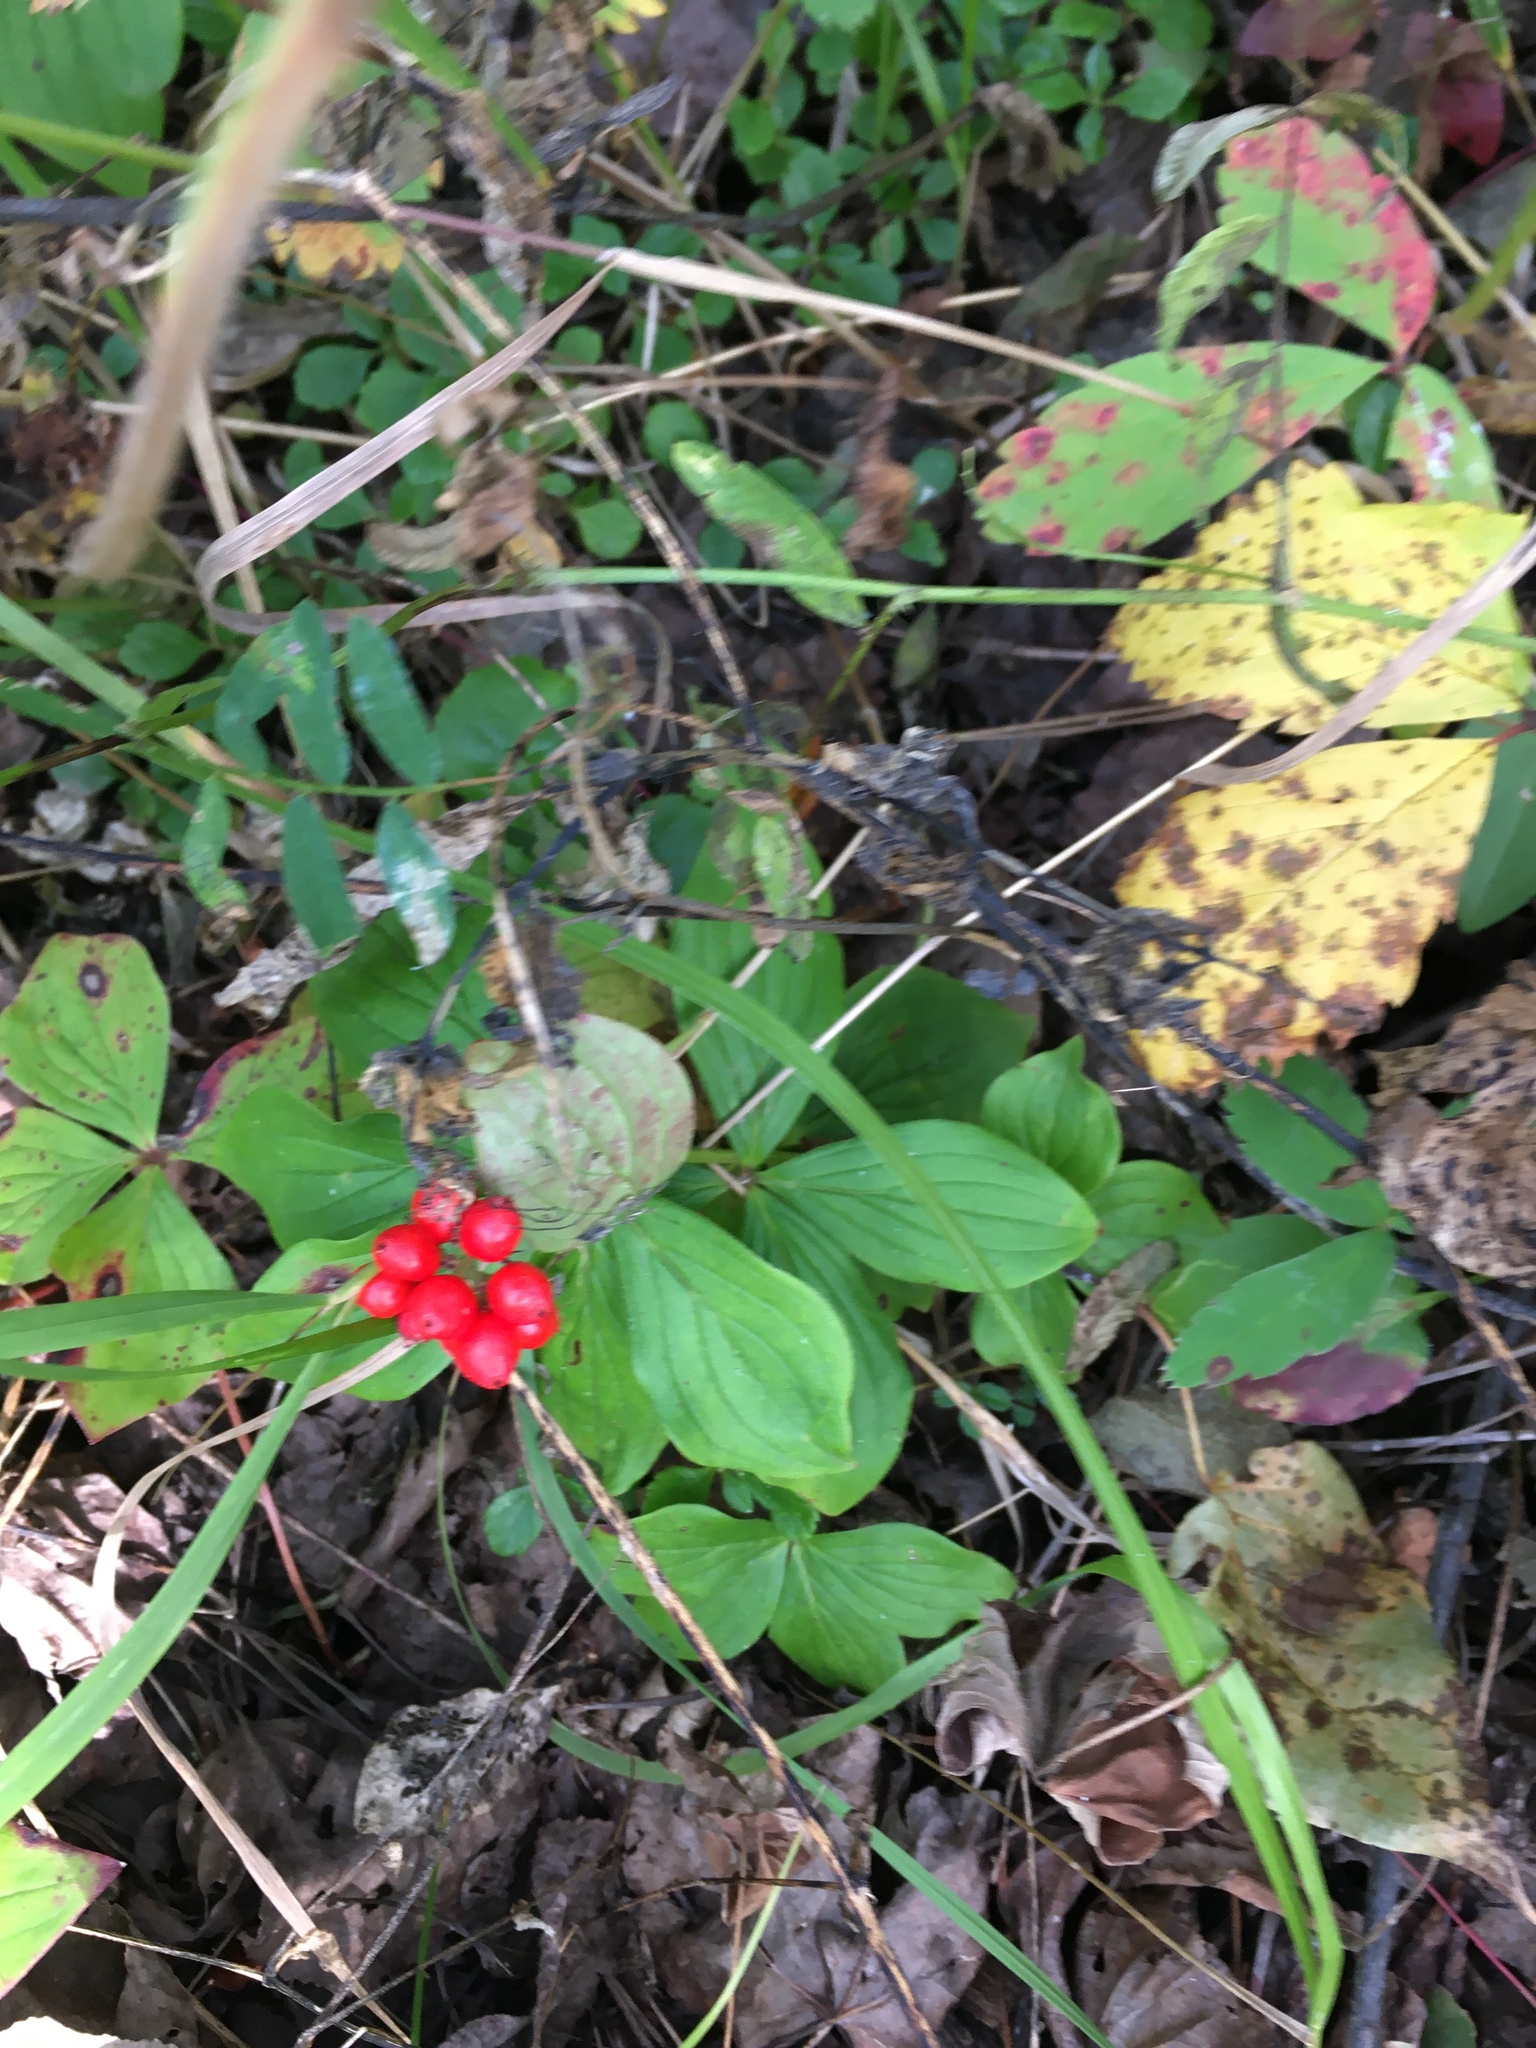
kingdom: Plantae
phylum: Tracheophyta
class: Magnoliopsida
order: Cornales
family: Cornaceae
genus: Cornus
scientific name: Cornus canadensis
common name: Creeping dogwood
